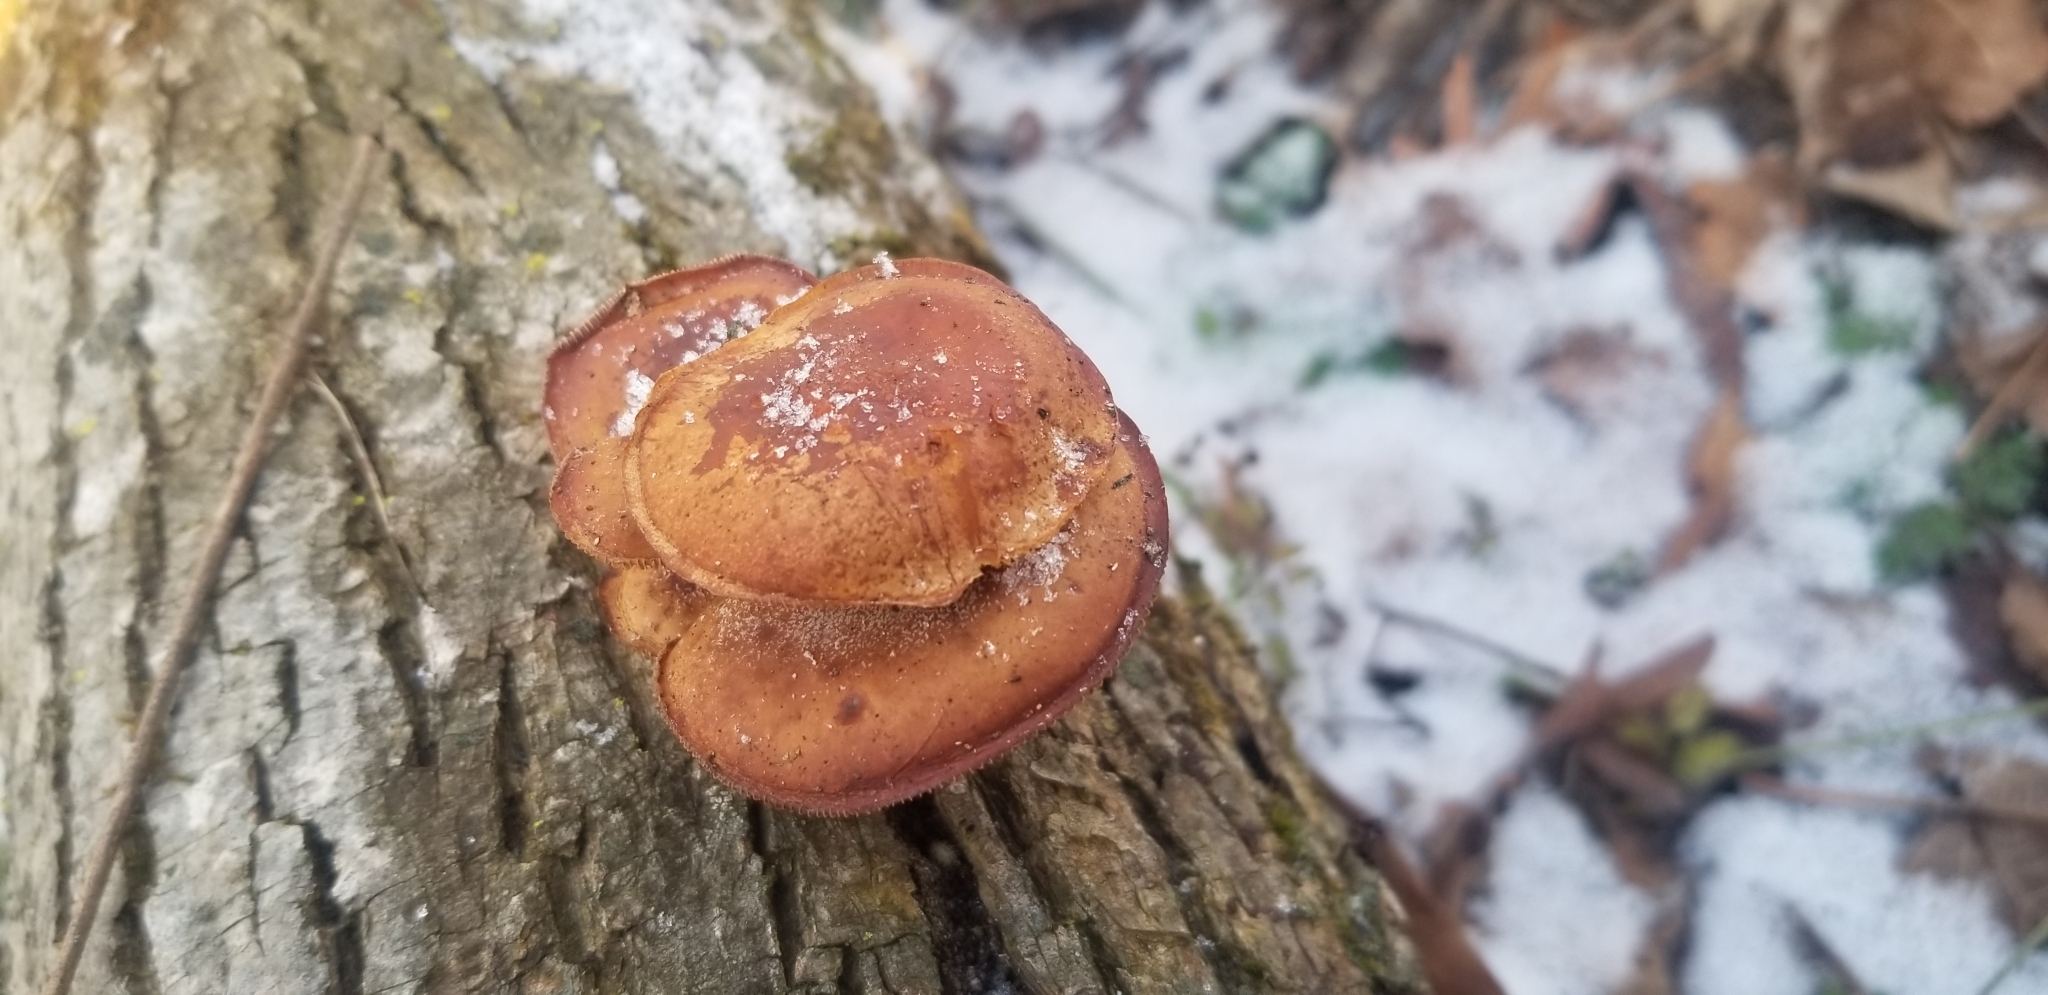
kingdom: Fungi
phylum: Basidiomycota
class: Agaricomycetes
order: Agaricales
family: Physalacriaceae
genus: Flammulina
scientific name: Flammulina velutipes
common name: Velvet shank
